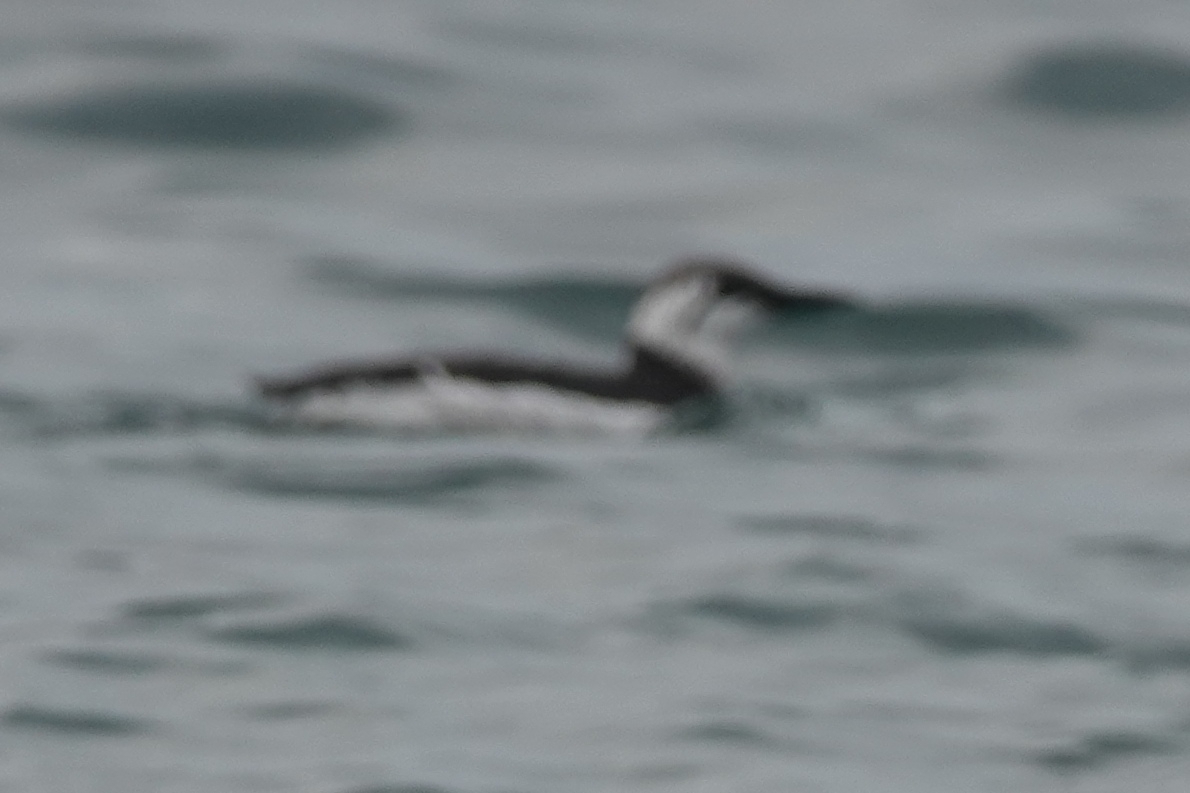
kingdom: Animalia
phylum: Chordata
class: Aves
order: Charadriiformes
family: Alcidae
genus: Uria
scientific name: Uria aalge
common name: Common murre
